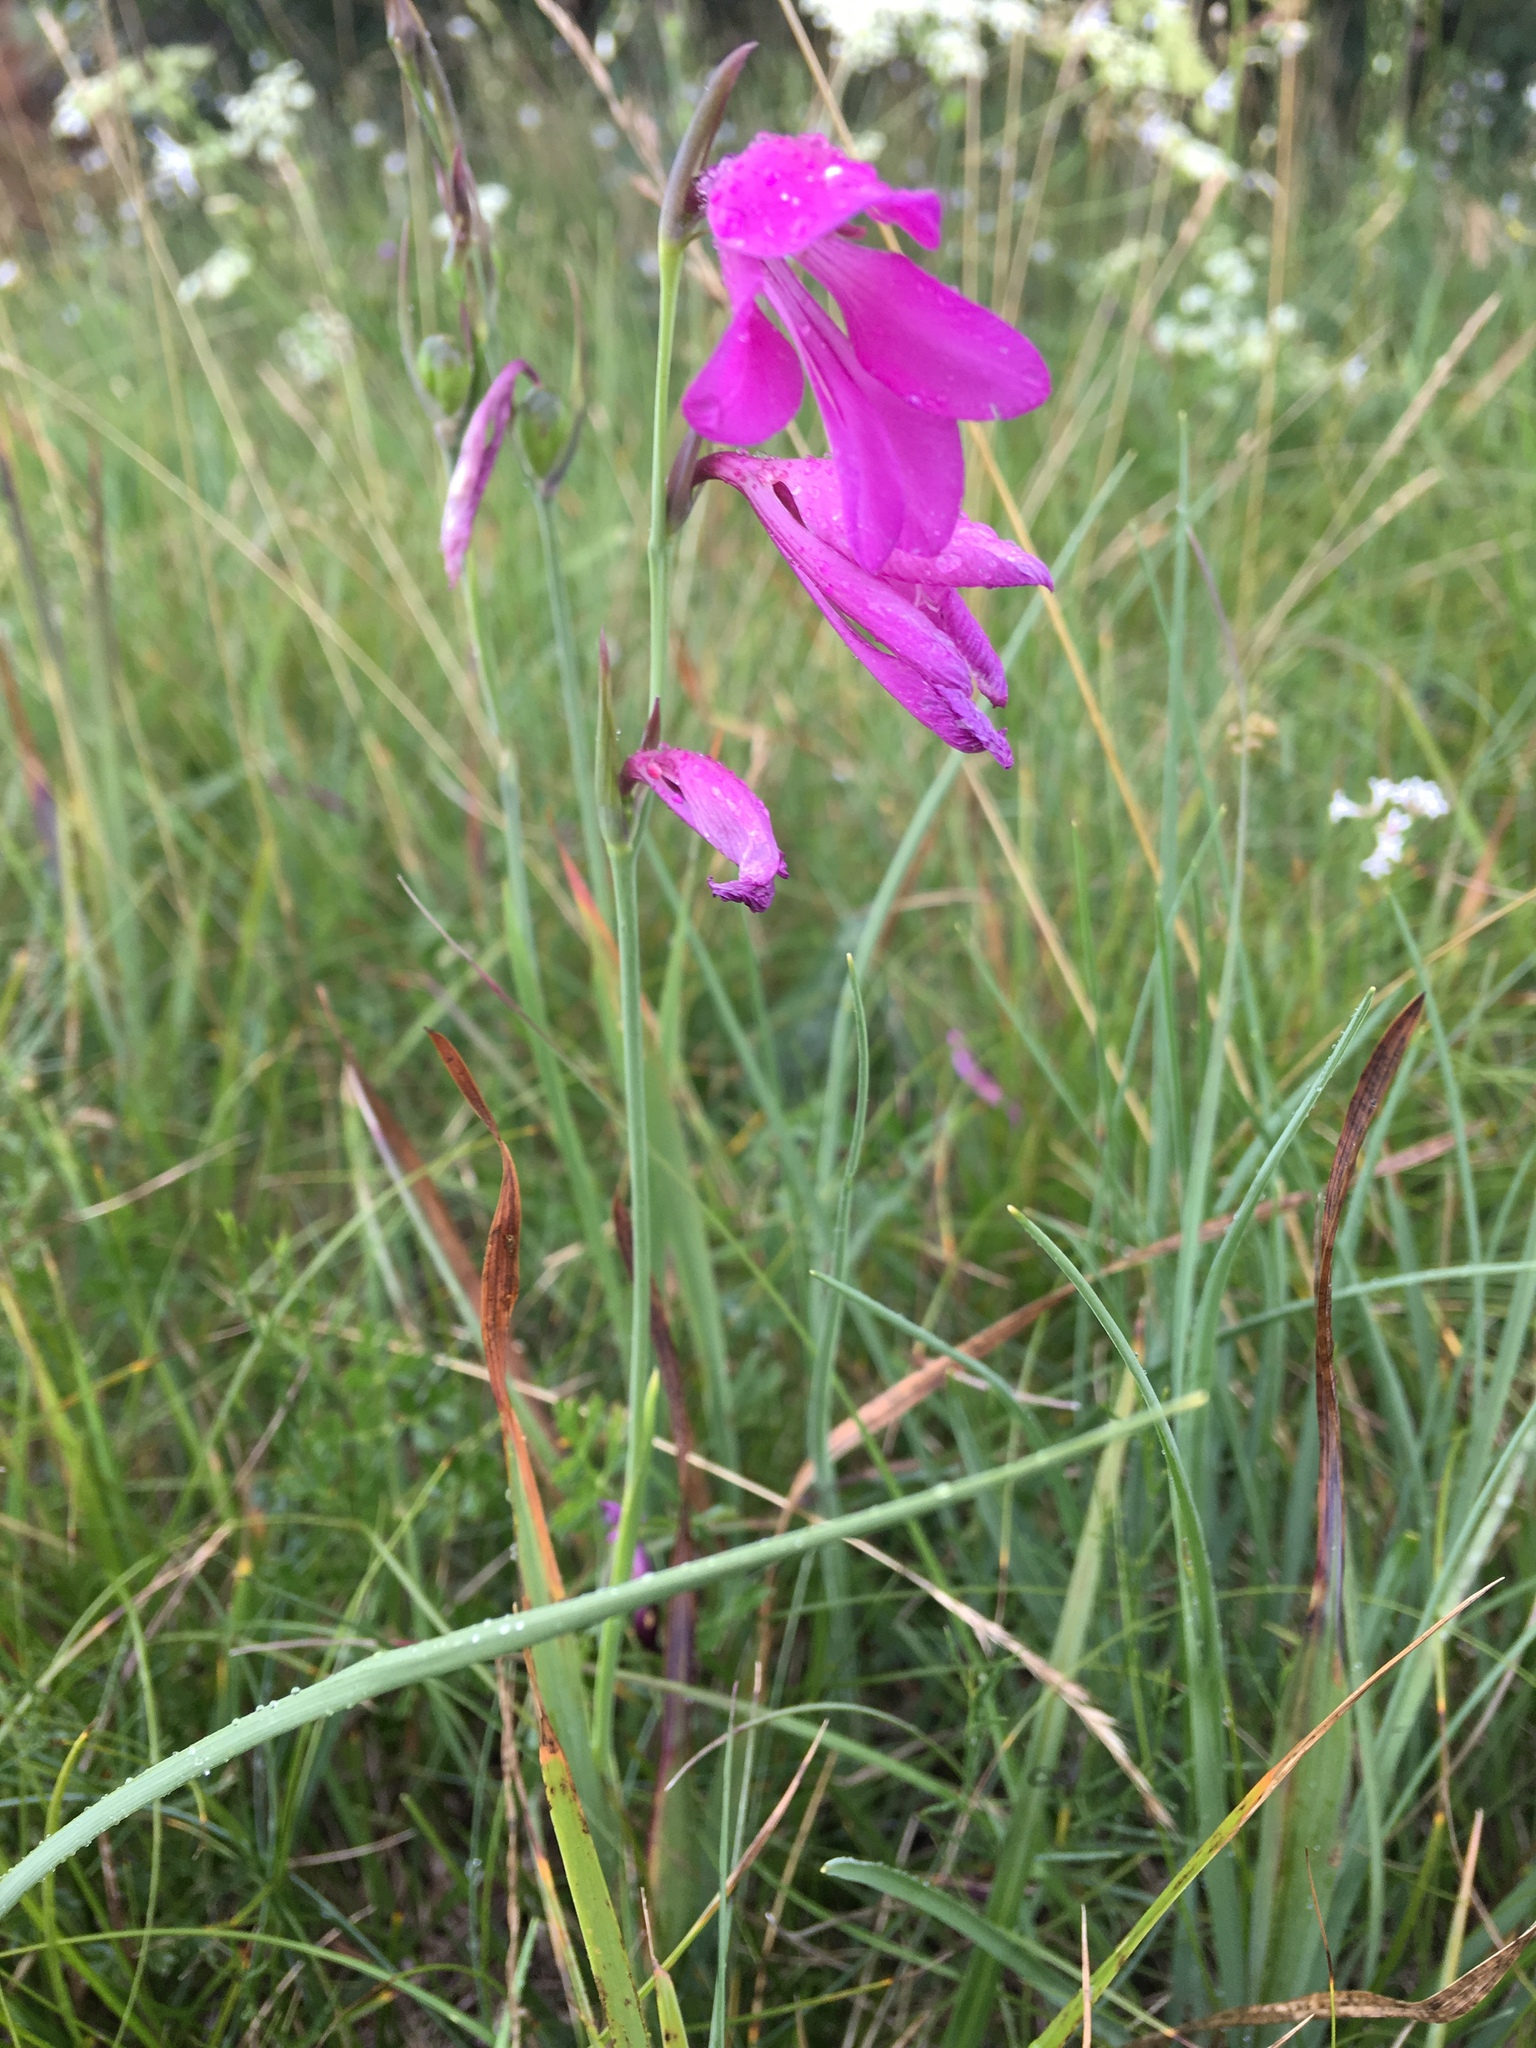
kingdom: Plantae
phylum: Tracheophyta
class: Liliopsida
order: Asparagales
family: Iridaceae
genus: Gladiolus
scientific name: Gladiolus palustris
